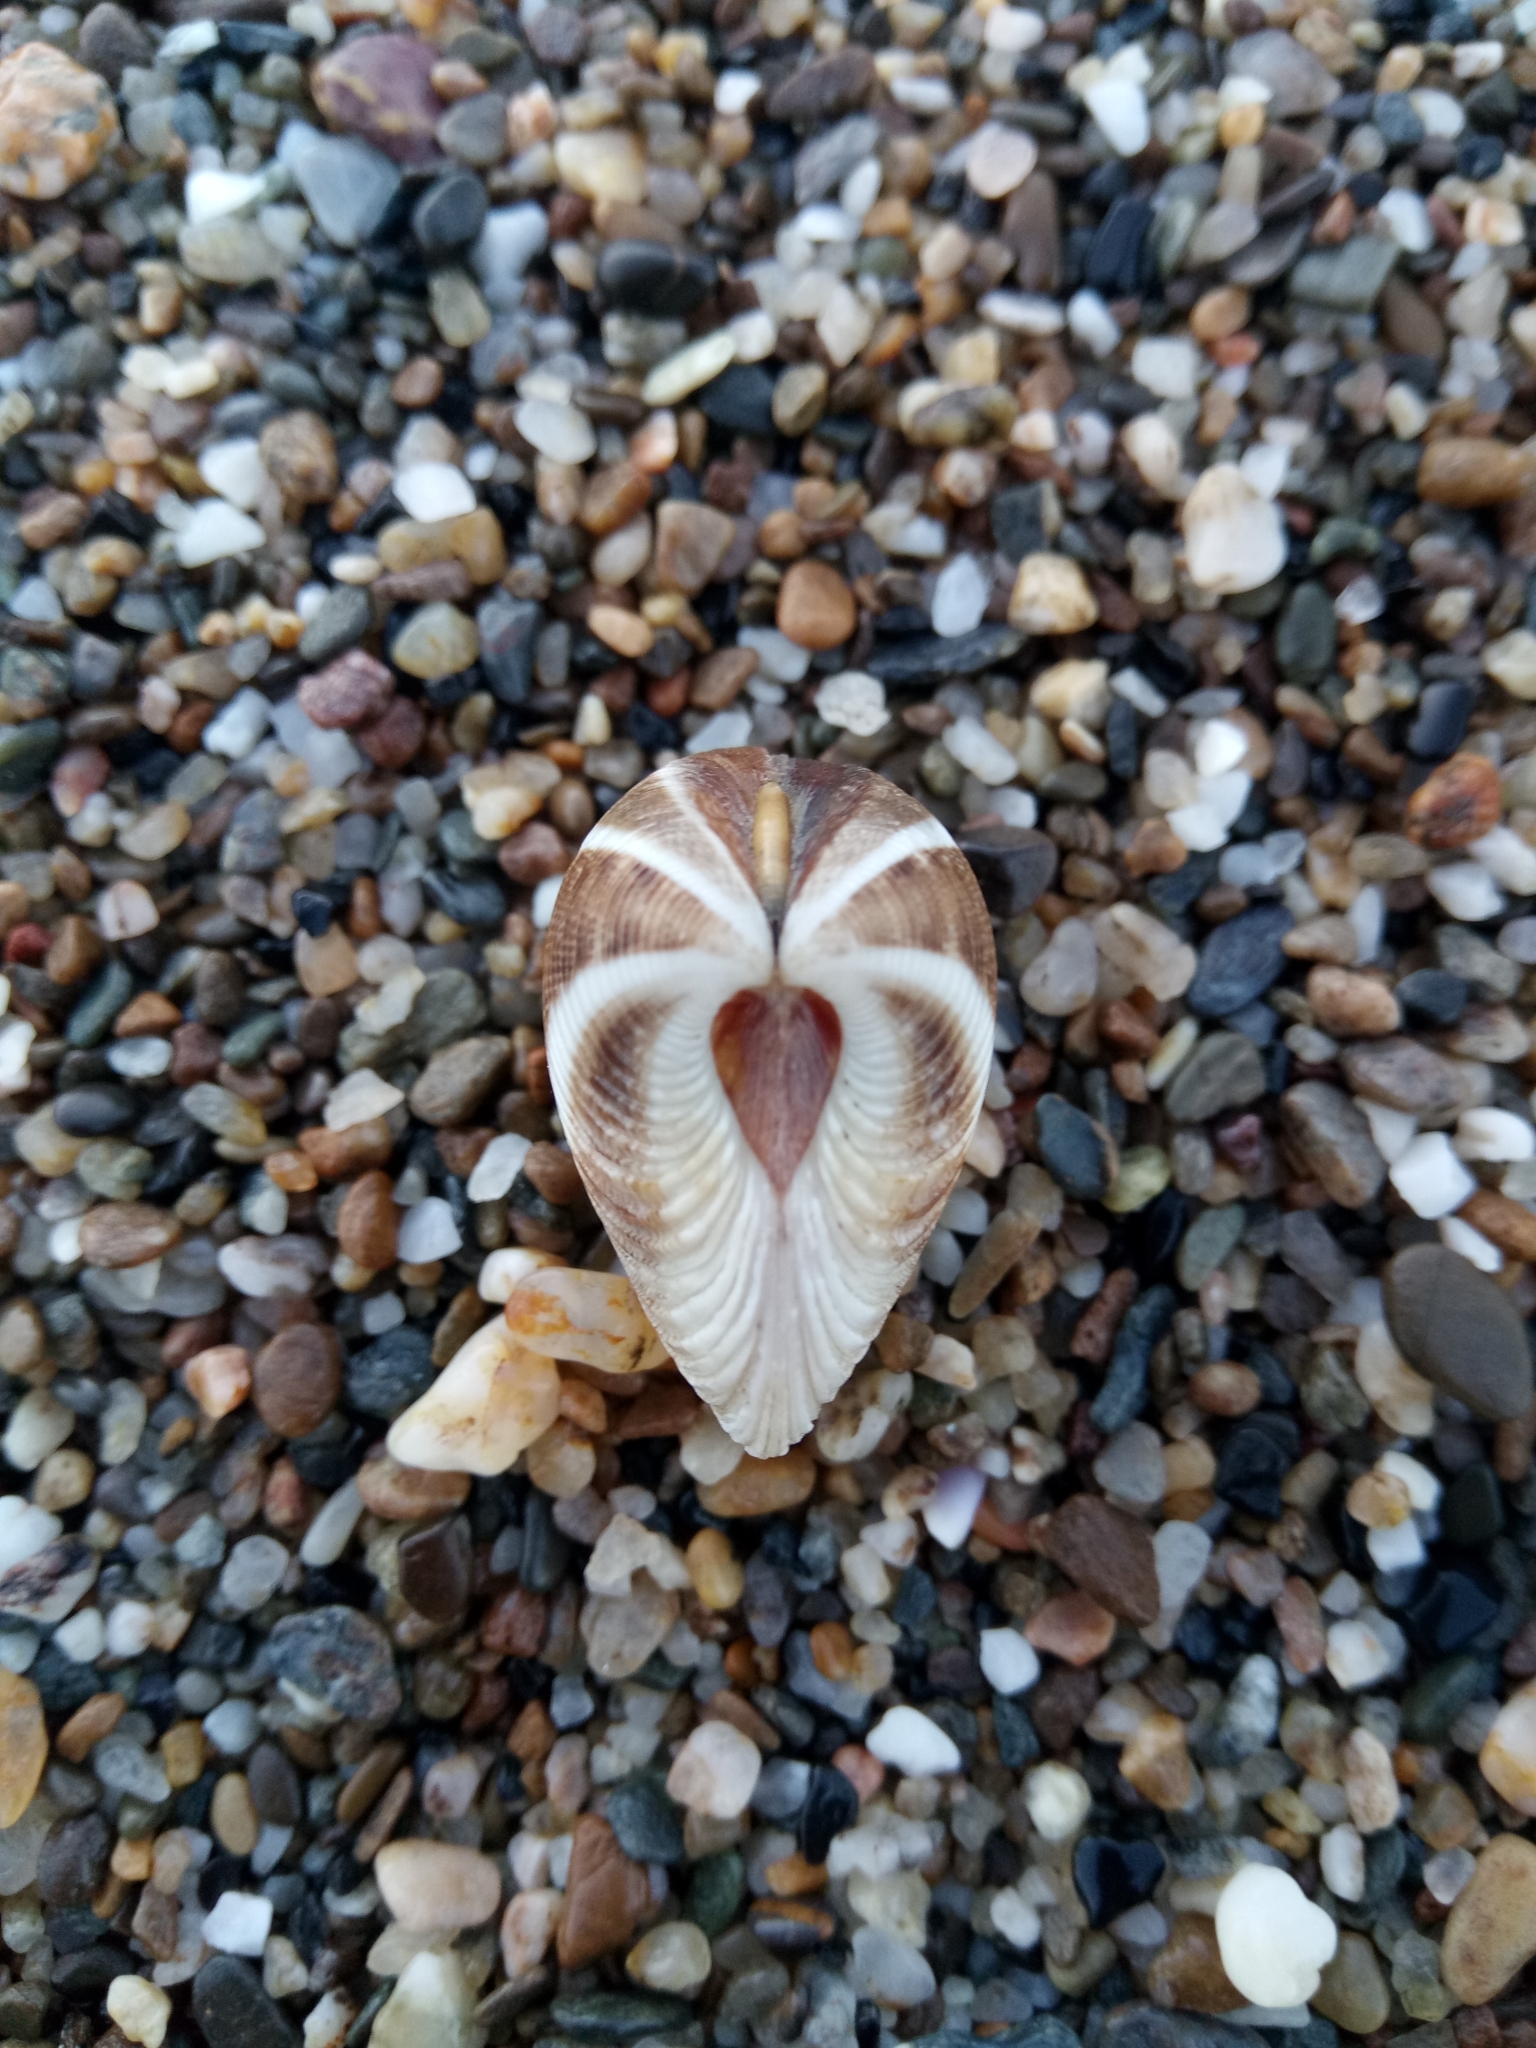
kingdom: Animalia
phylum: Mollusca
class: Bivalvia
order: Venerida
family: Veneridae
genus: Chamelea
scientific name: Chamelea gallina
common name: Chicken venus
